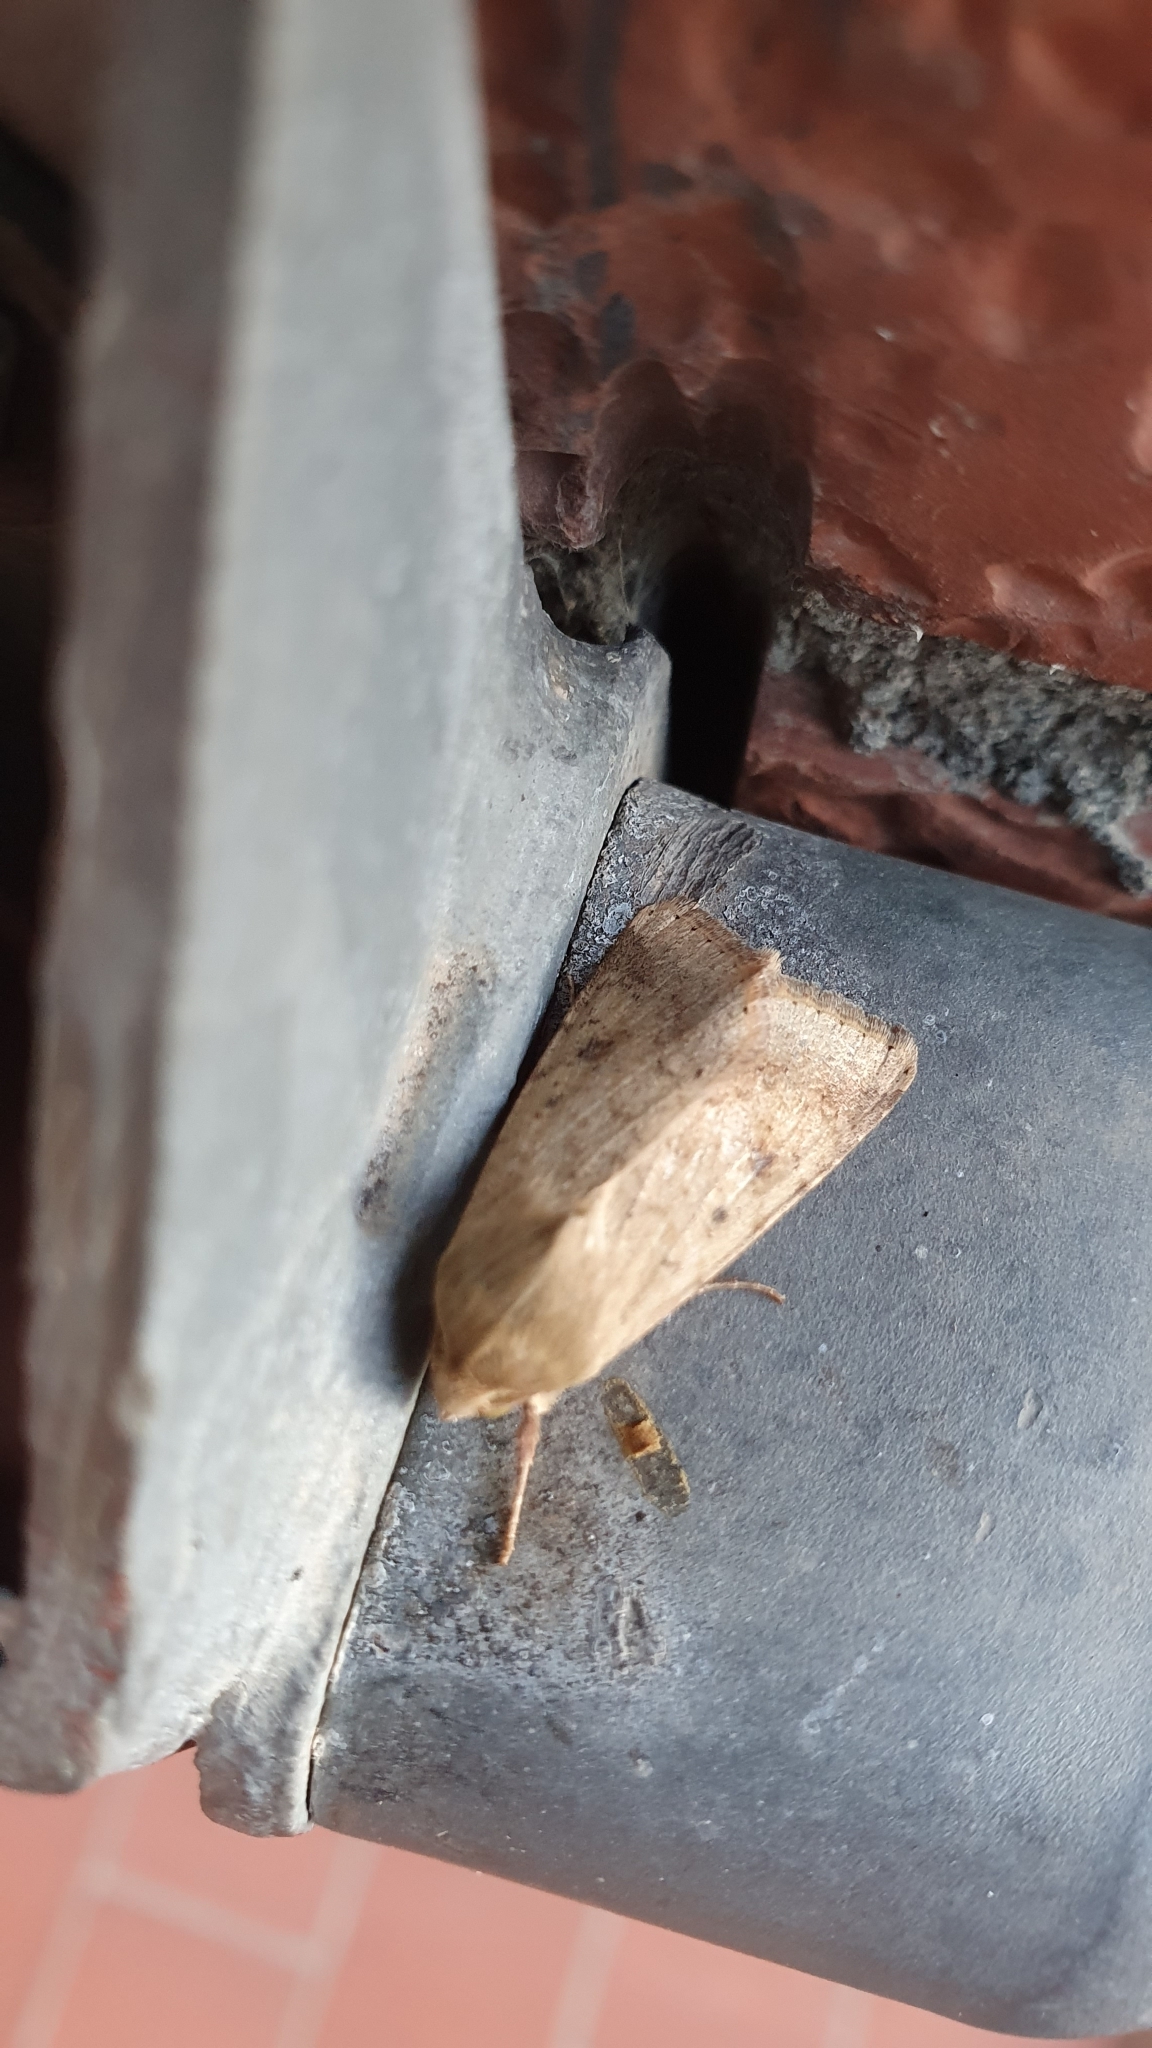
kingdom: Animalia
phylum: Arthropoda
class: Insecta
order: Lepidoptera
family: Noctuidae
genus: Helicoverpa
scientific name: Helicoverpa armigera
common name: Cotton bollworm
